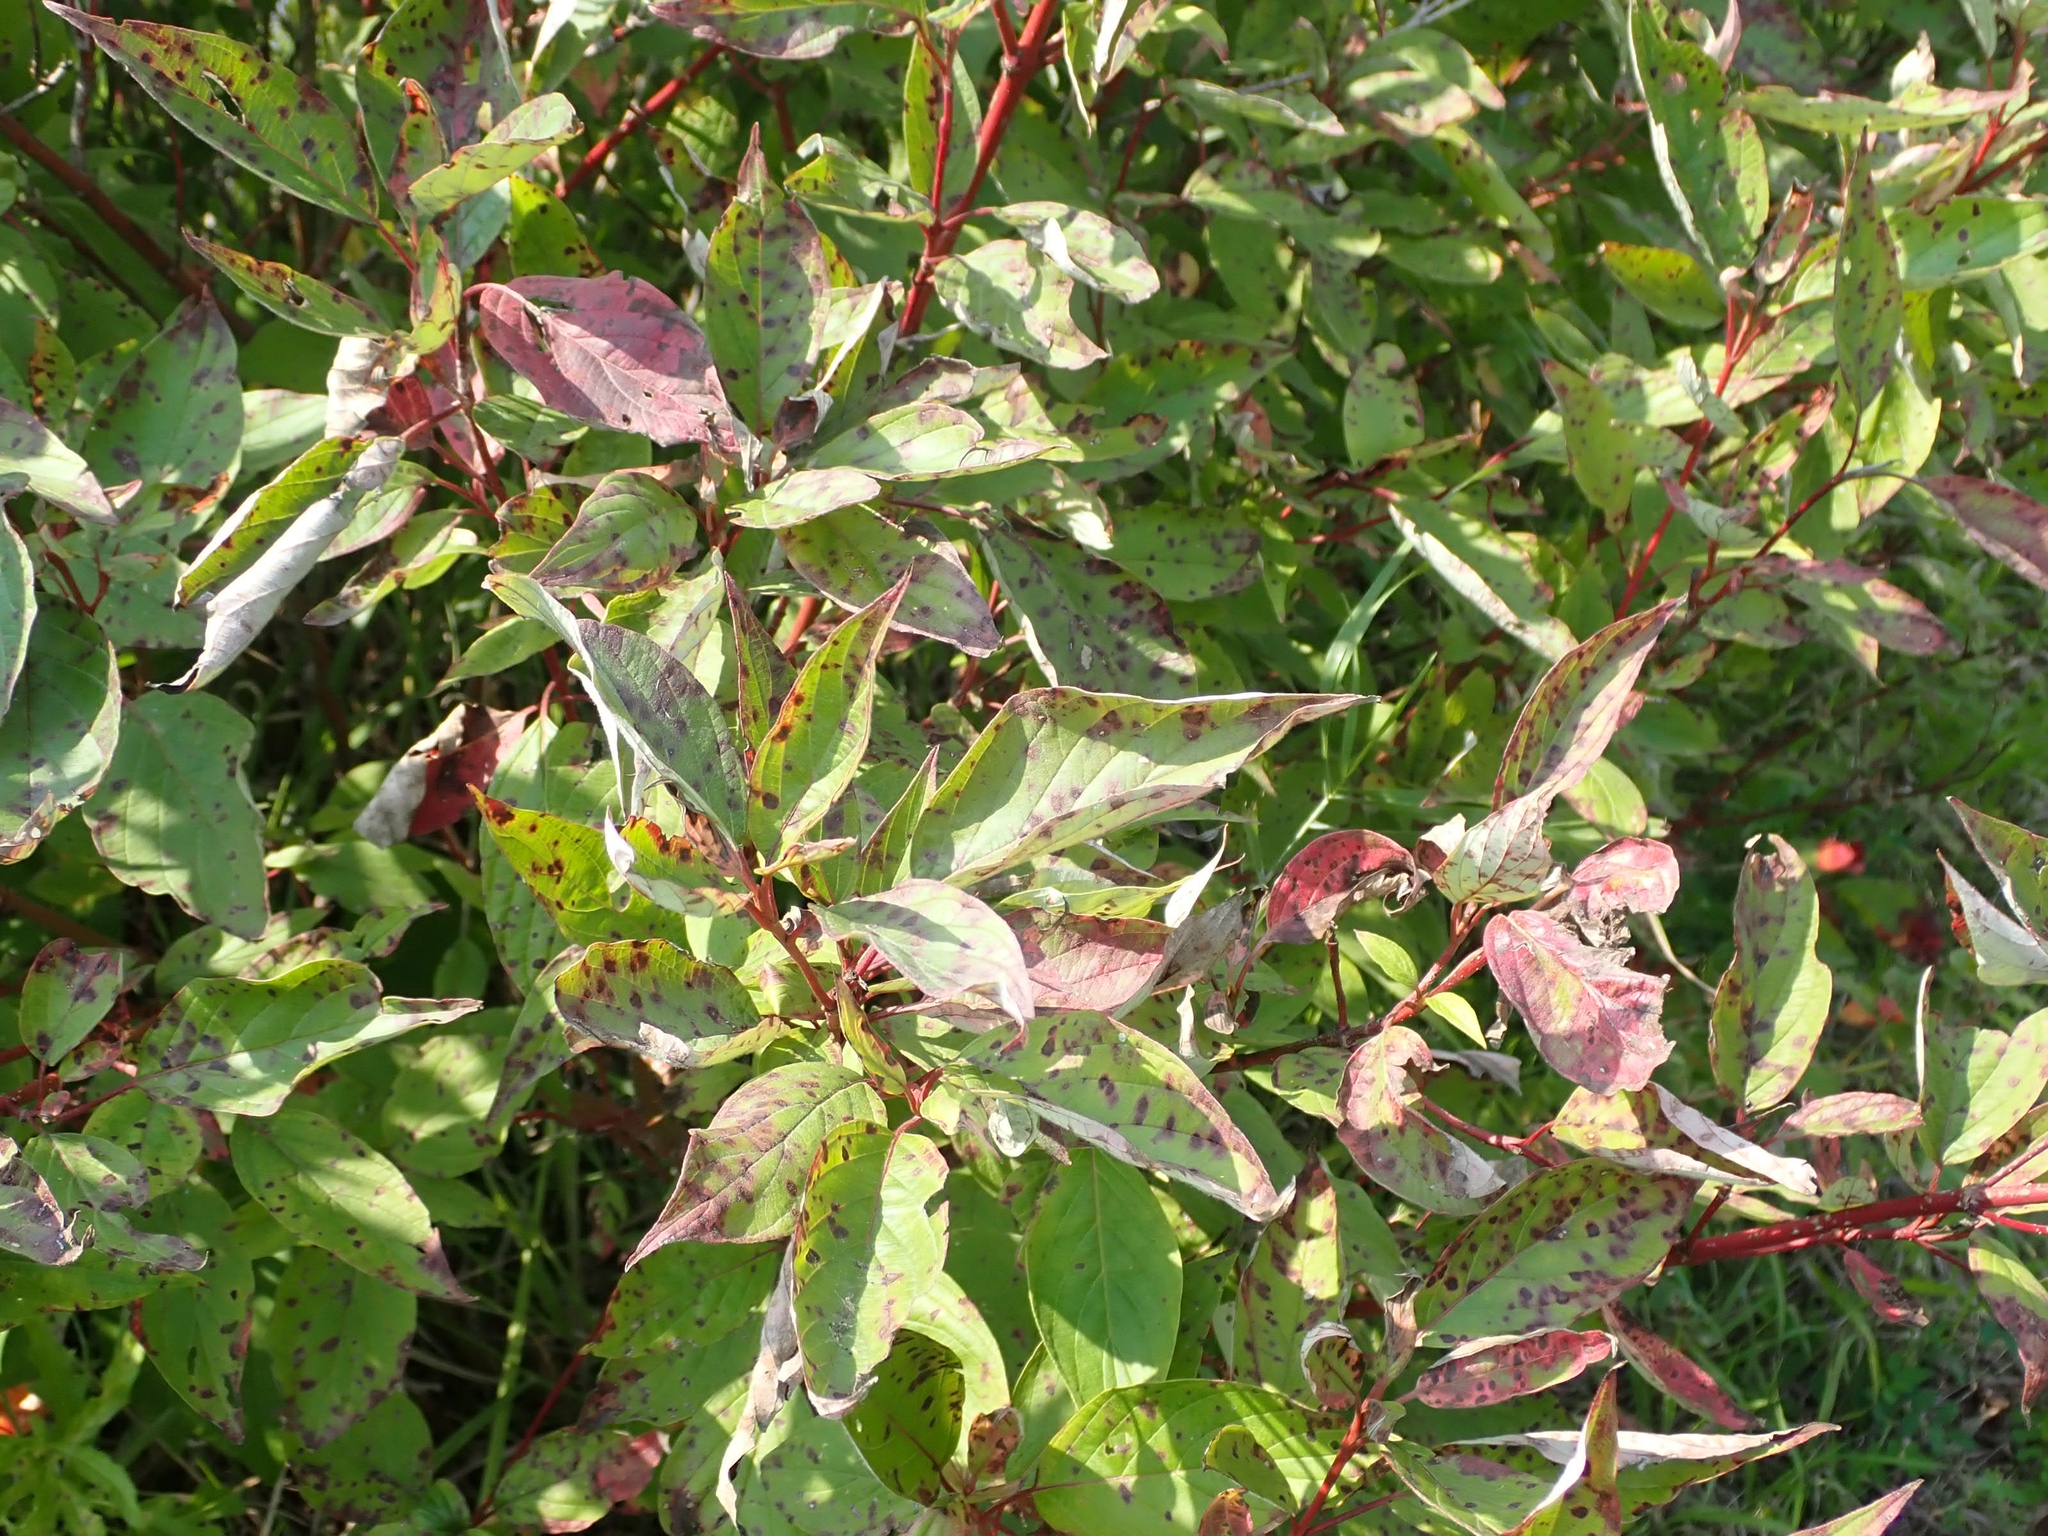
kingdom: Plantae
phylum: Tracheophyta
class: Magnoliopsida
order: Cornales
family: Cornaceae
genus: Cornus
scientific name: Cornus sericea
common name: Red-osier dogwood
